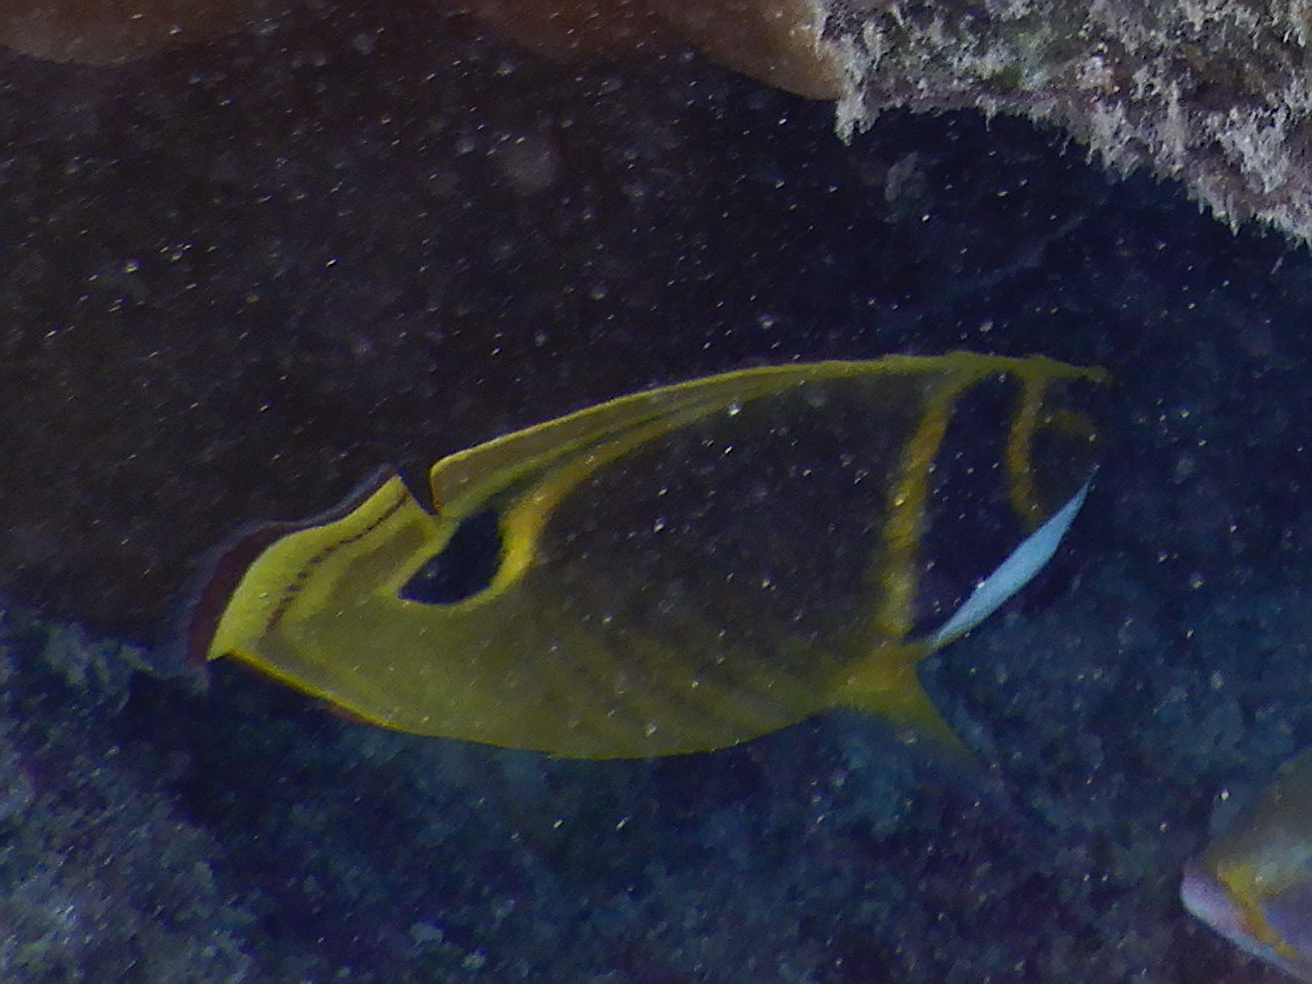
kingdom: Animalia
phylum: Chordata
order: Perciformes
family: Chaetodontidae
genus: Chaetodon
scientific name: Chaetodon lunula
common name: Raccoon butterflyfish
